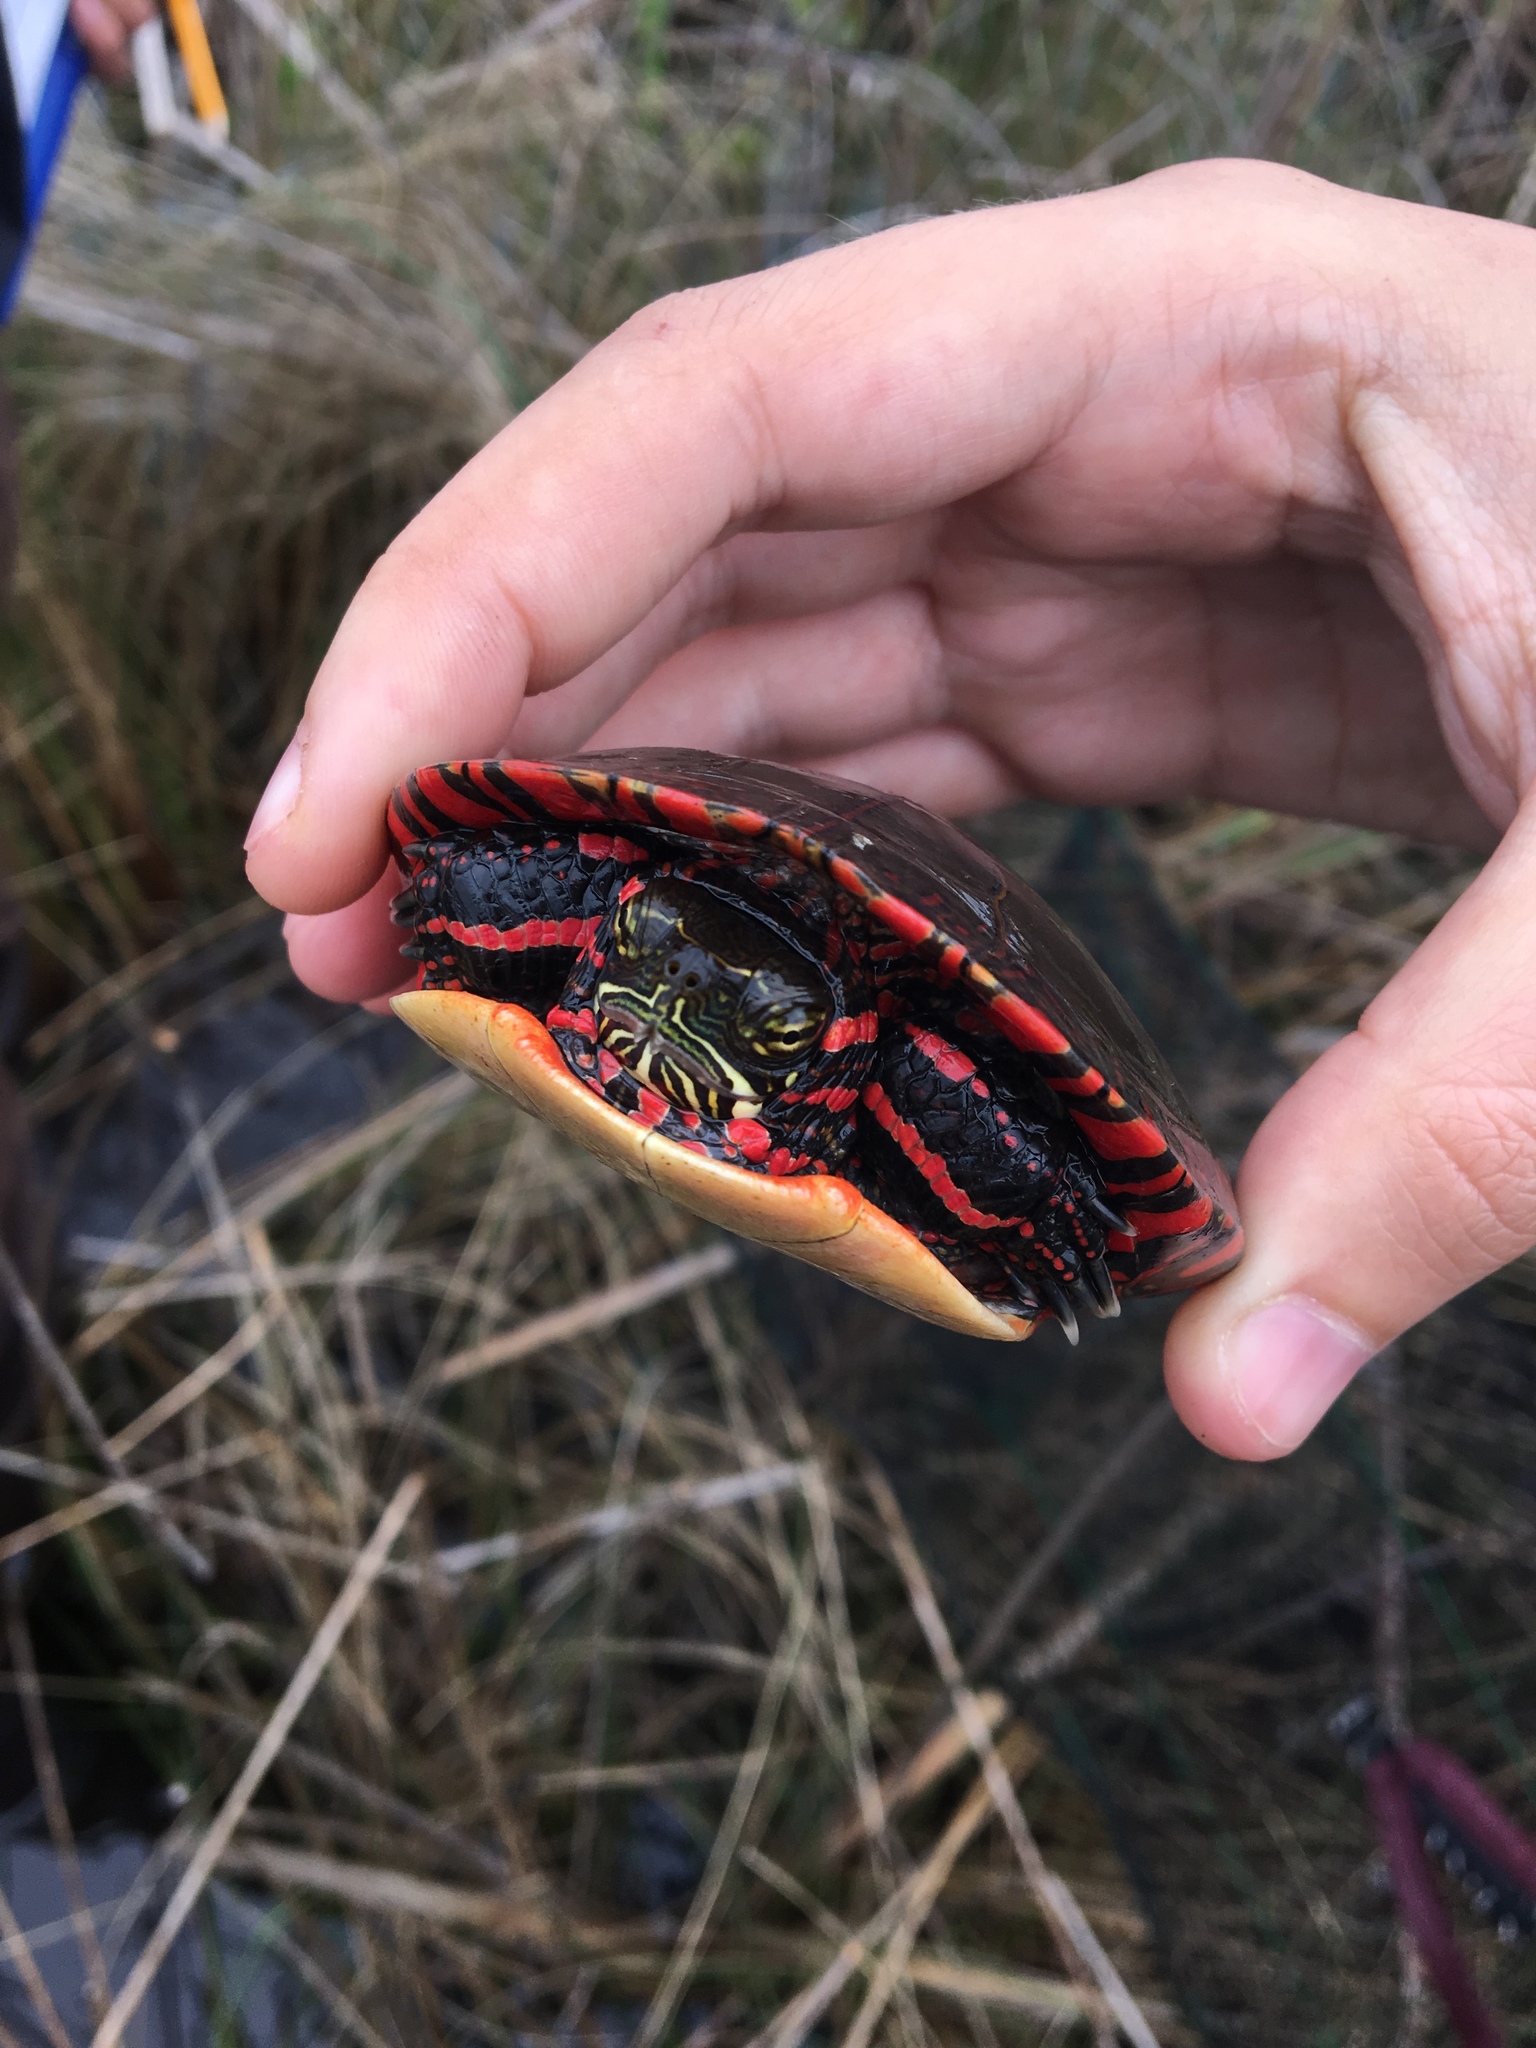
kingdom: Animalia
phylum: Chordata
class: Testudines
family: Emydidae
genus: Chrysemys
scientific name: Chrysemys picta
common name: Painted turtle
